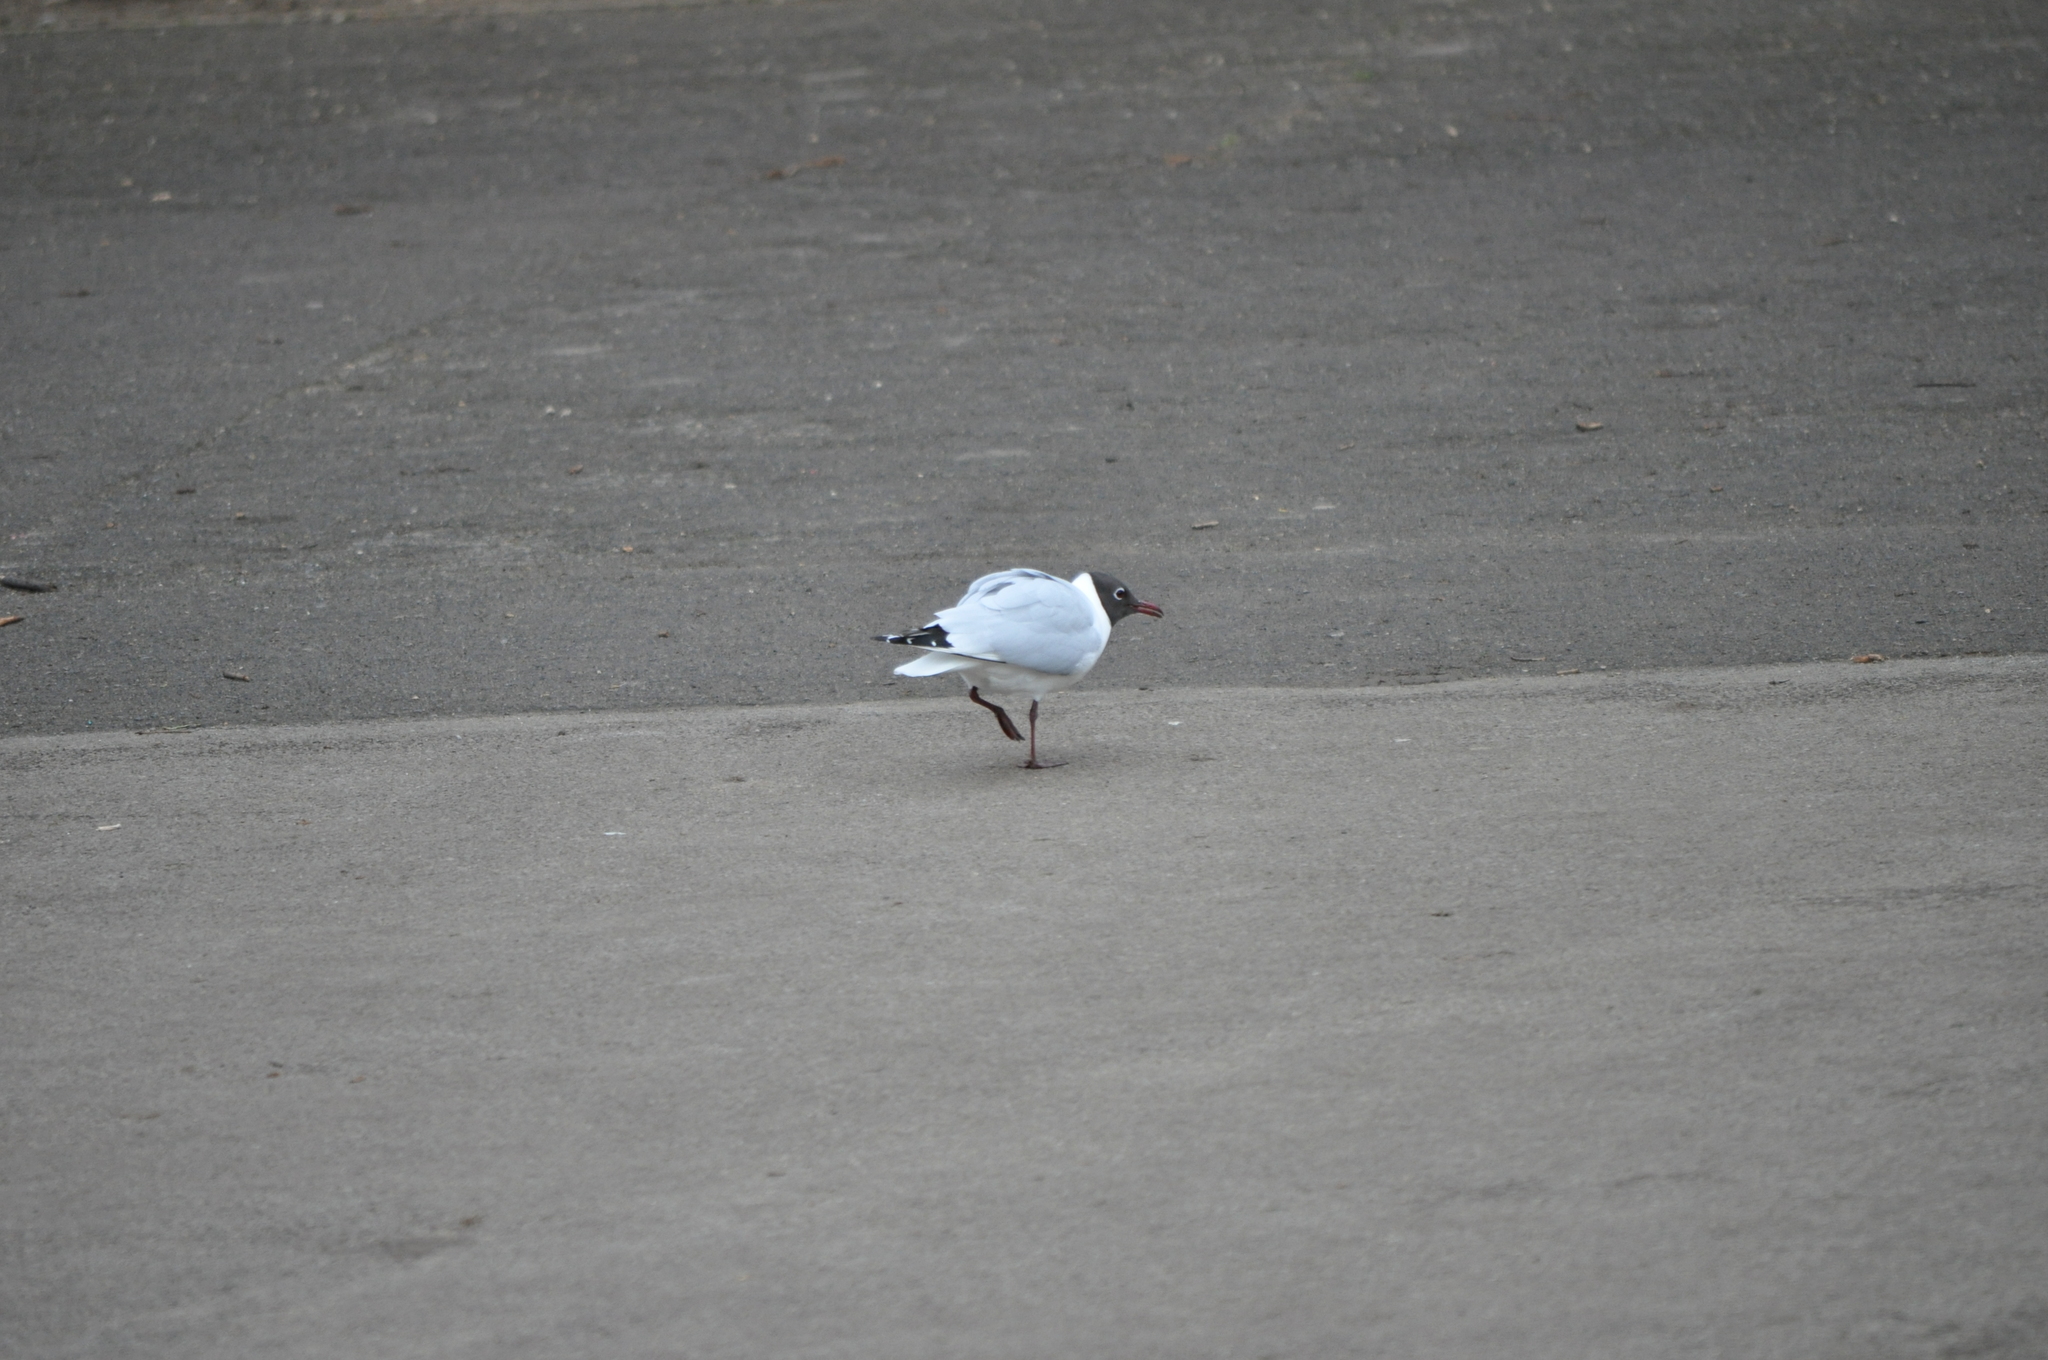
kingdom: Animalia
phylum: Chordata
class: Aves
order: Charadriiformes
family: Laridae
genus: Chroicocephalus
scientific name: Chroicocephalus ridibundus
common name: Black-headed gull
